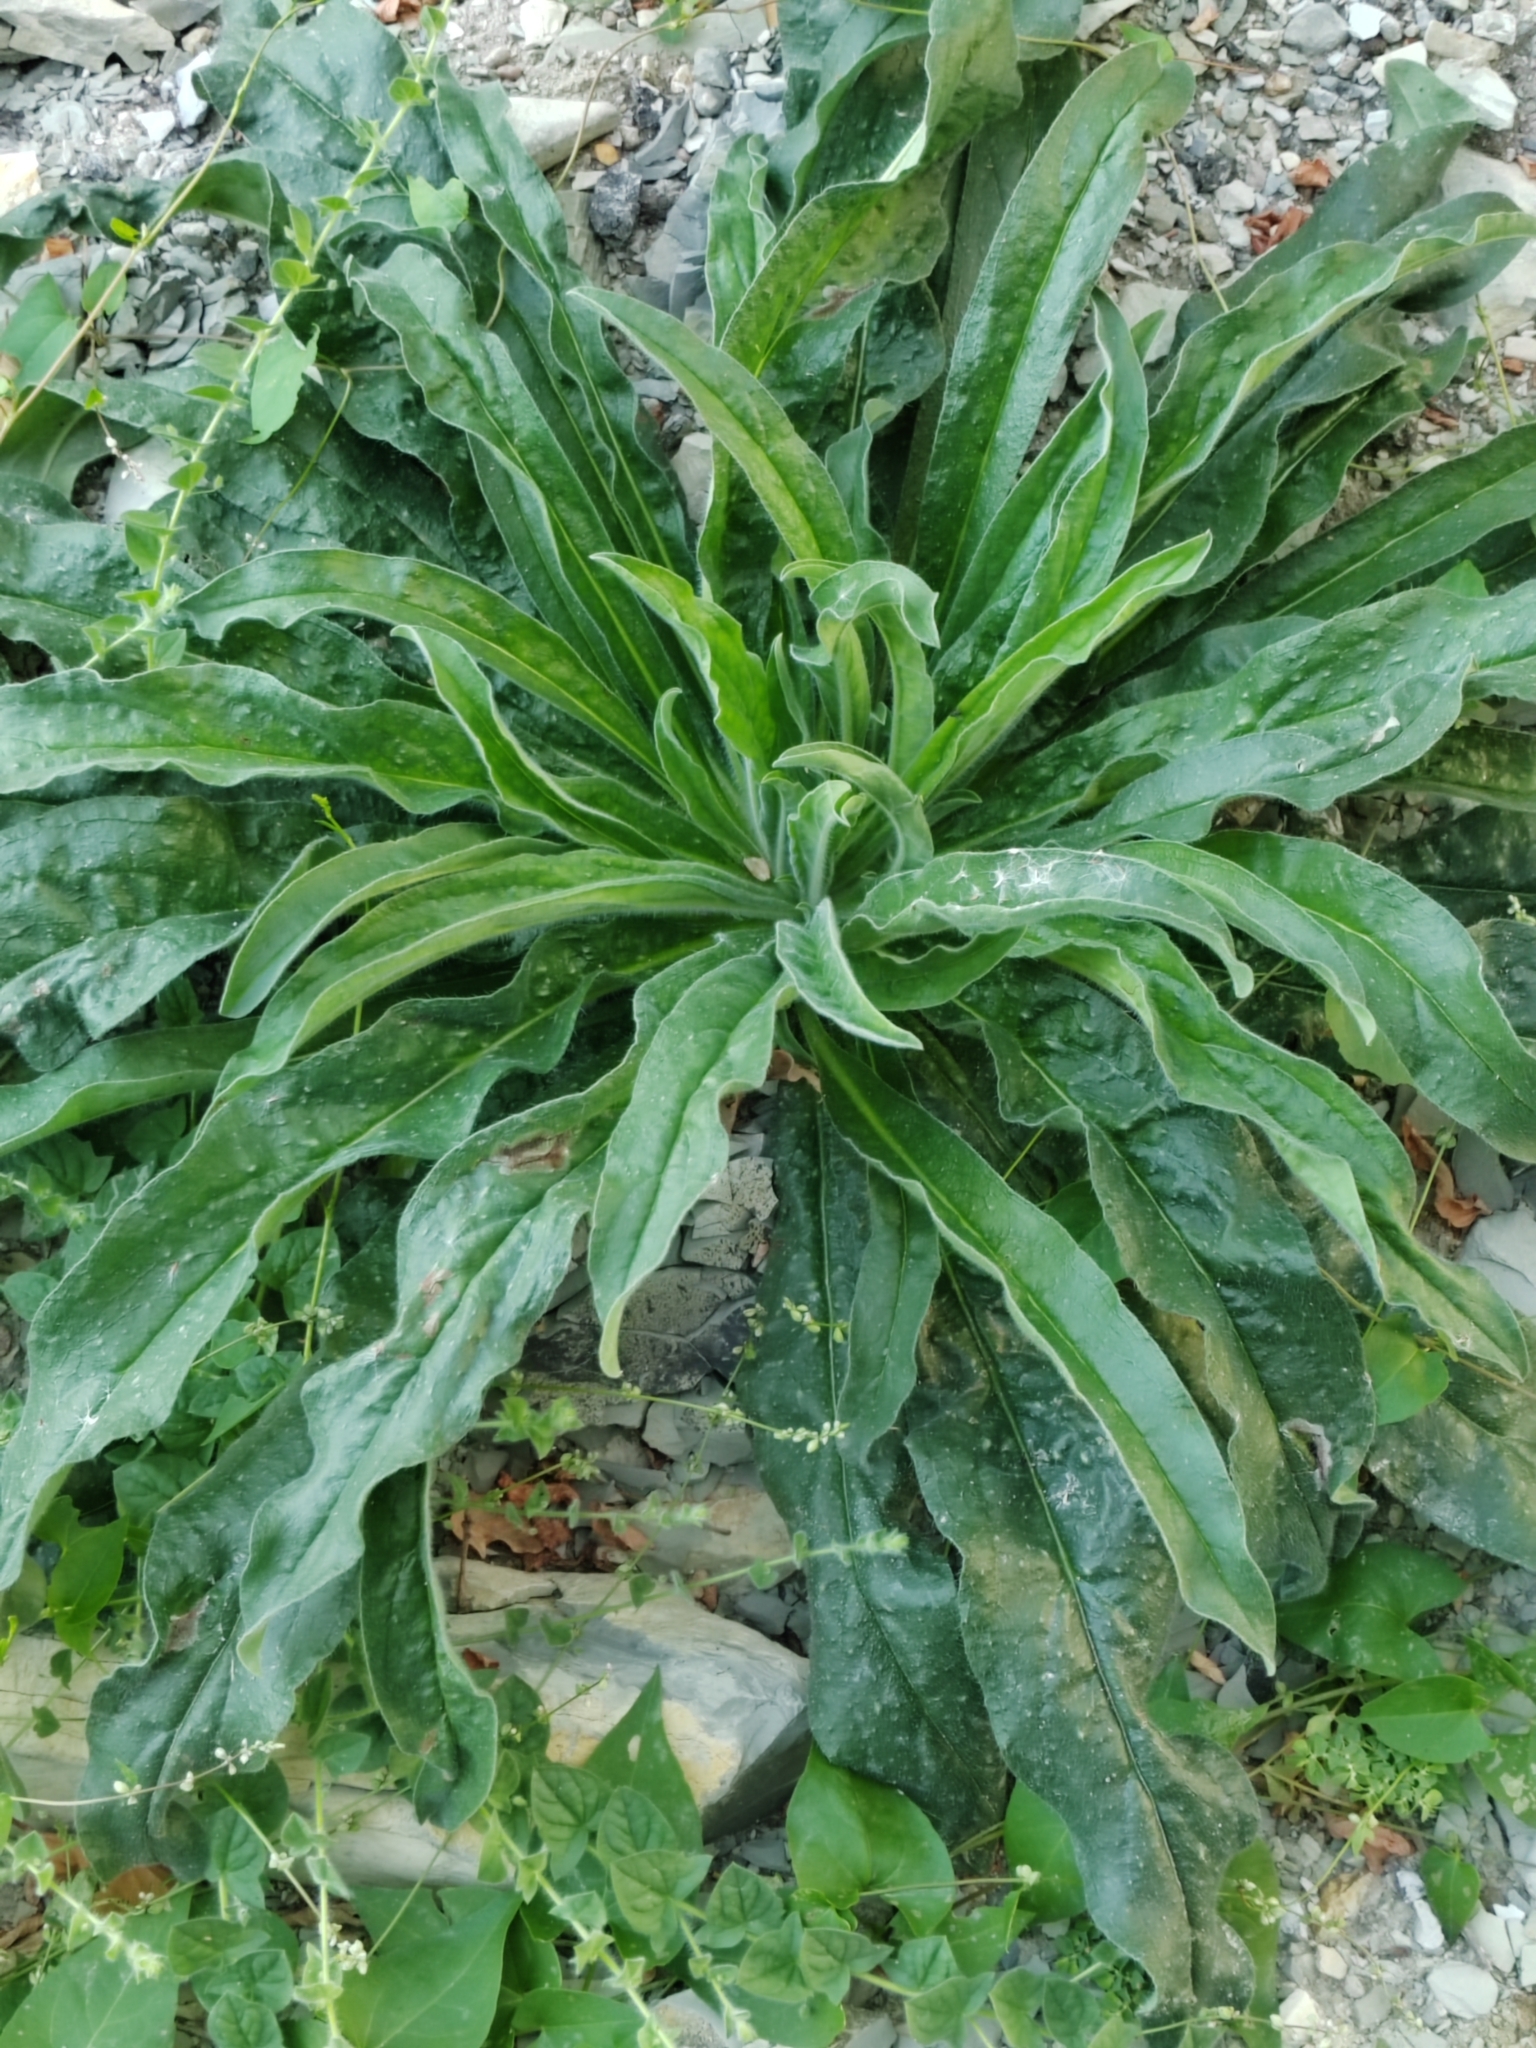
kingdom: Plantae
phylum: Tracheophyta
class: Magnoliopsida
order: Boraginales
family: Boraginaceae
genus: Echium
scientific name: Echium vulgare
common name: Common viper's bugloss
